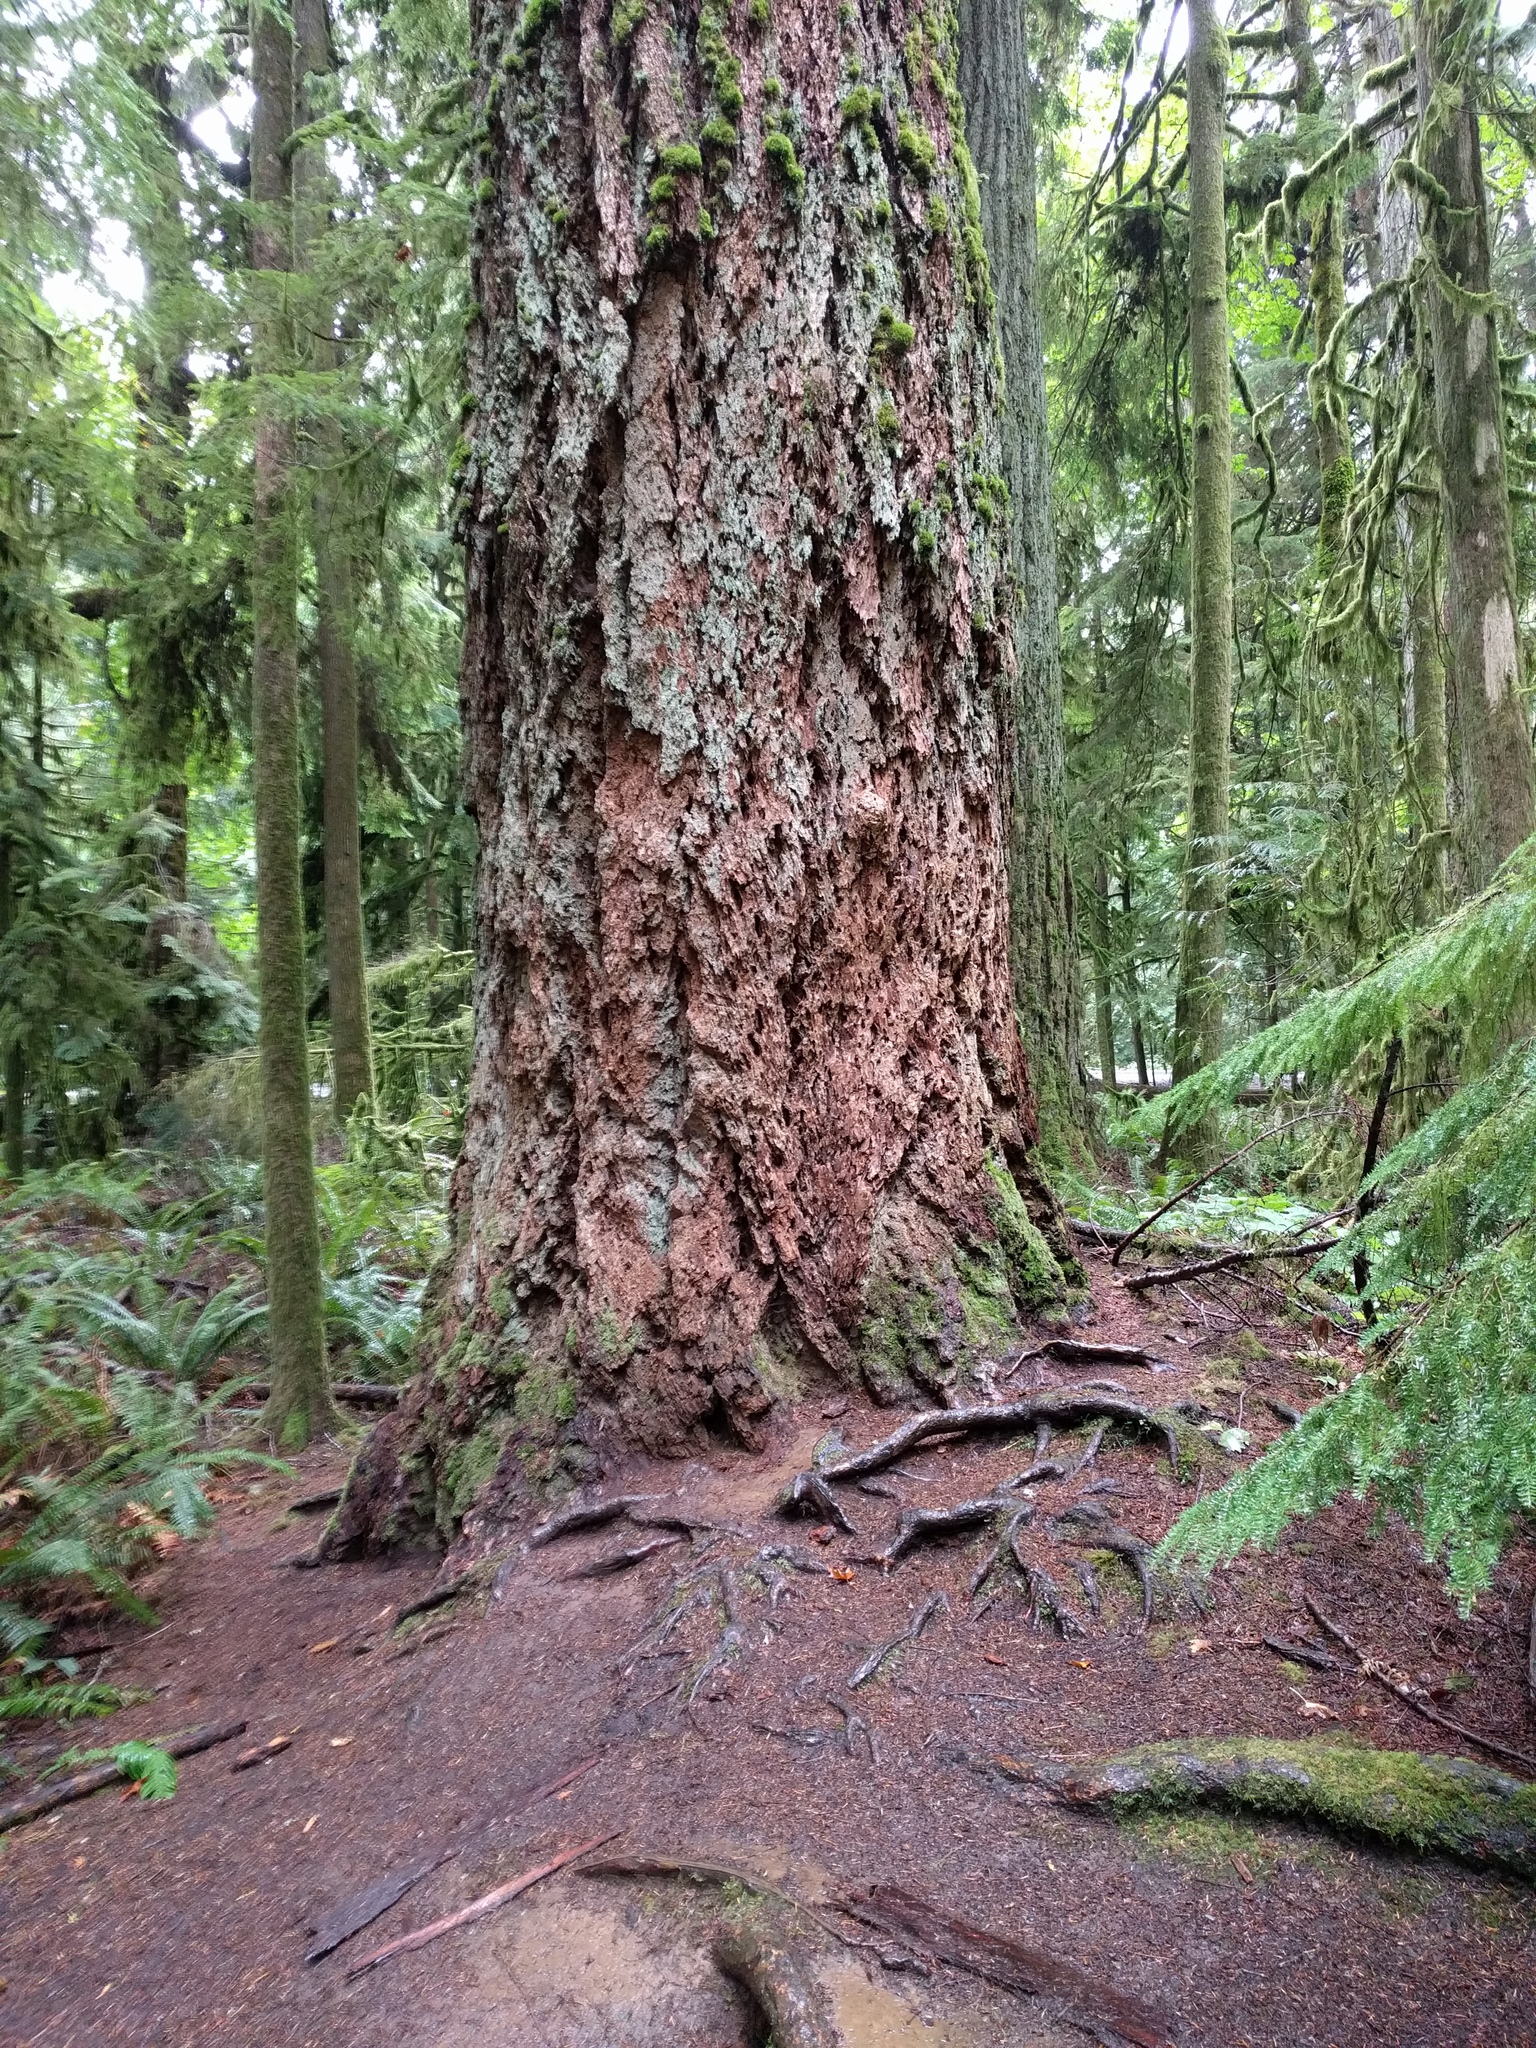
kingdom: Plantae
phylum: Tracheophyta
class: Pinopsida
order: Pinales
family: Pinaceae
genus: Pseudotsuga
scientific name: Pseudotsuga menziesii
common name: Douglas fir
